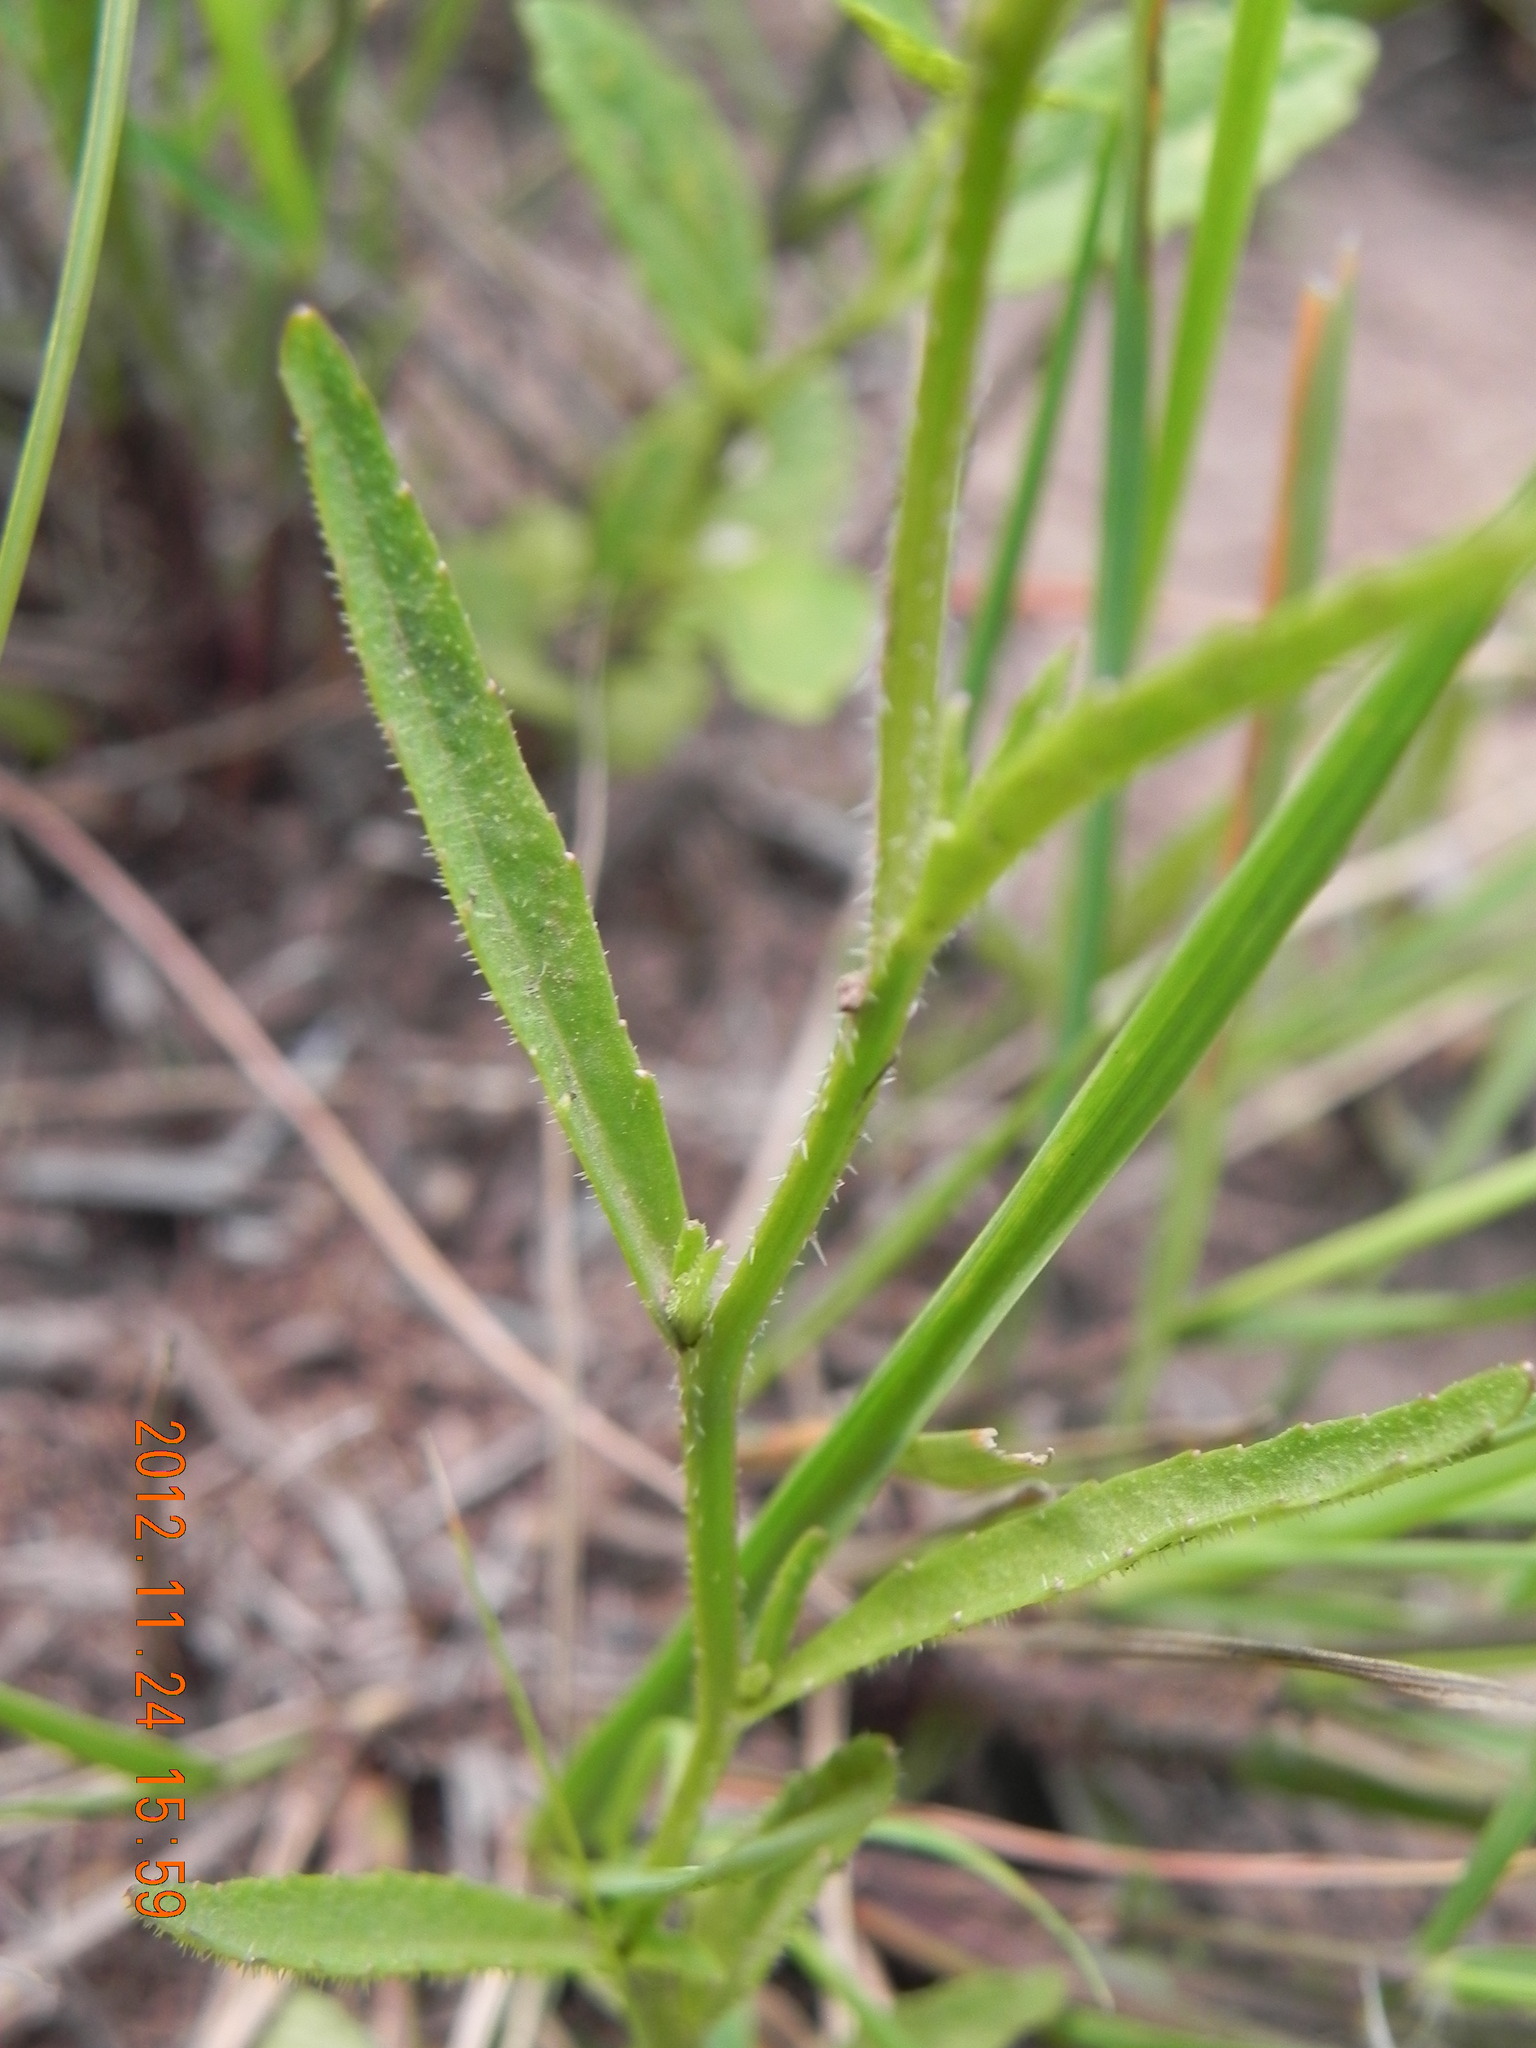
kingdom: Plantae
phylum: Tracheophyta
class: Magnoliopsida
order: Asterales
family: Campanulaceae
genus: Lobelia
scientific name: Lobelia flaccida
